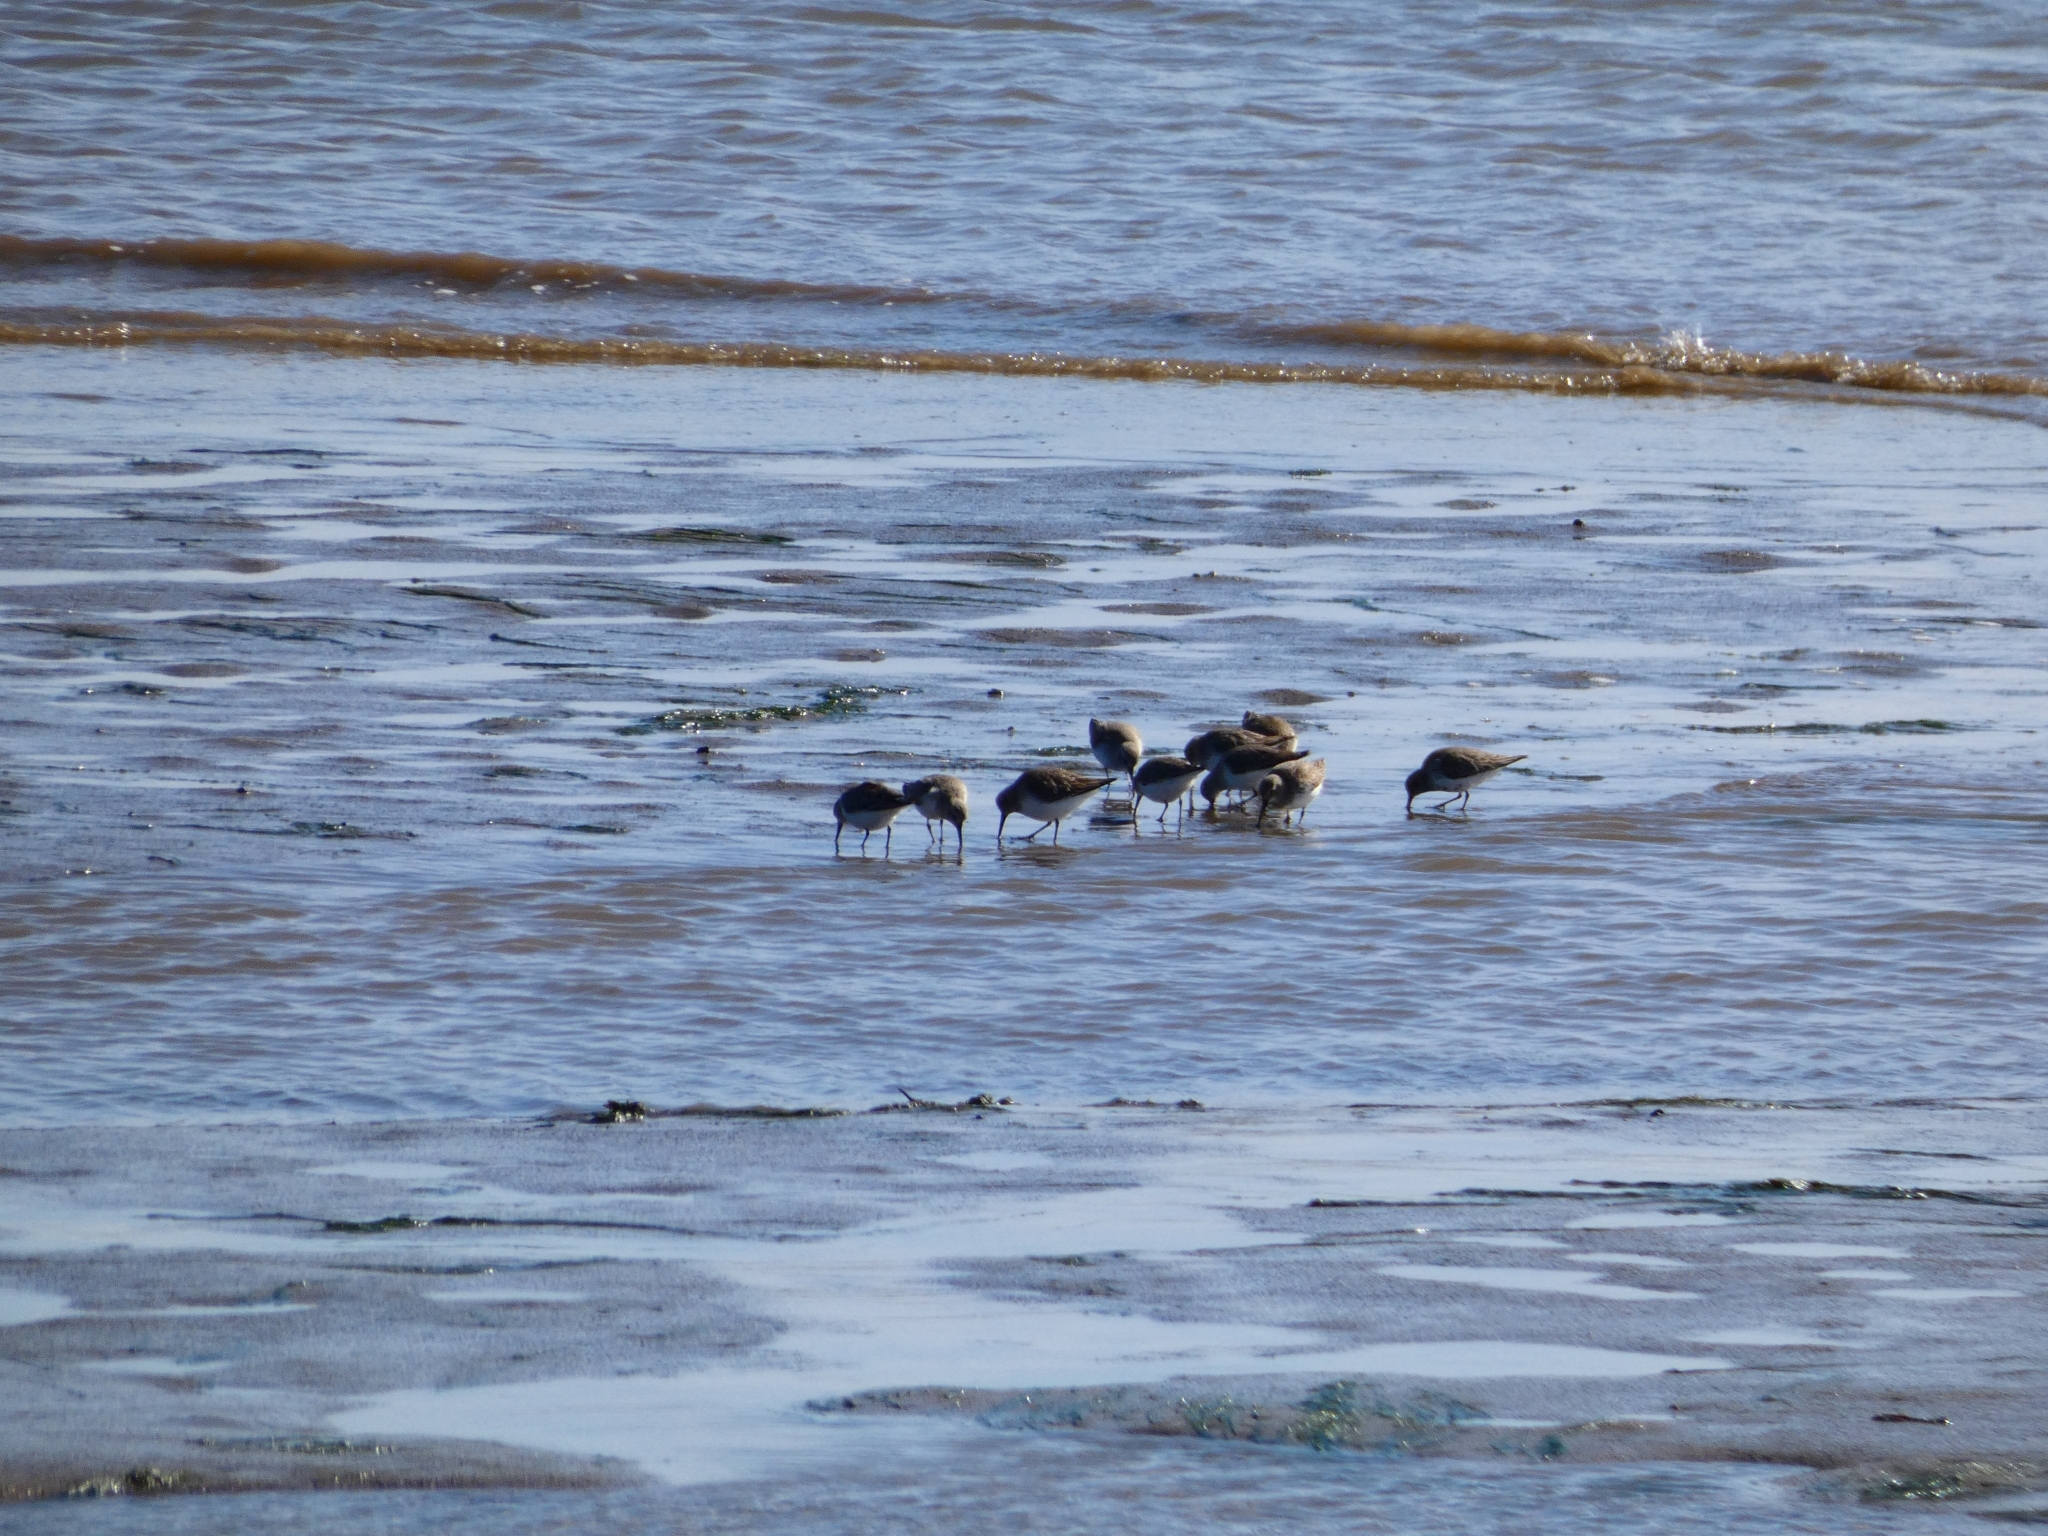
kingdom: Animalia
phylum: Chordata
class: Aves
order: Charadriiformes
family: Scolopacidae
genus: Calidris
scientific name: Calidris alpina
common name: Dunlin
